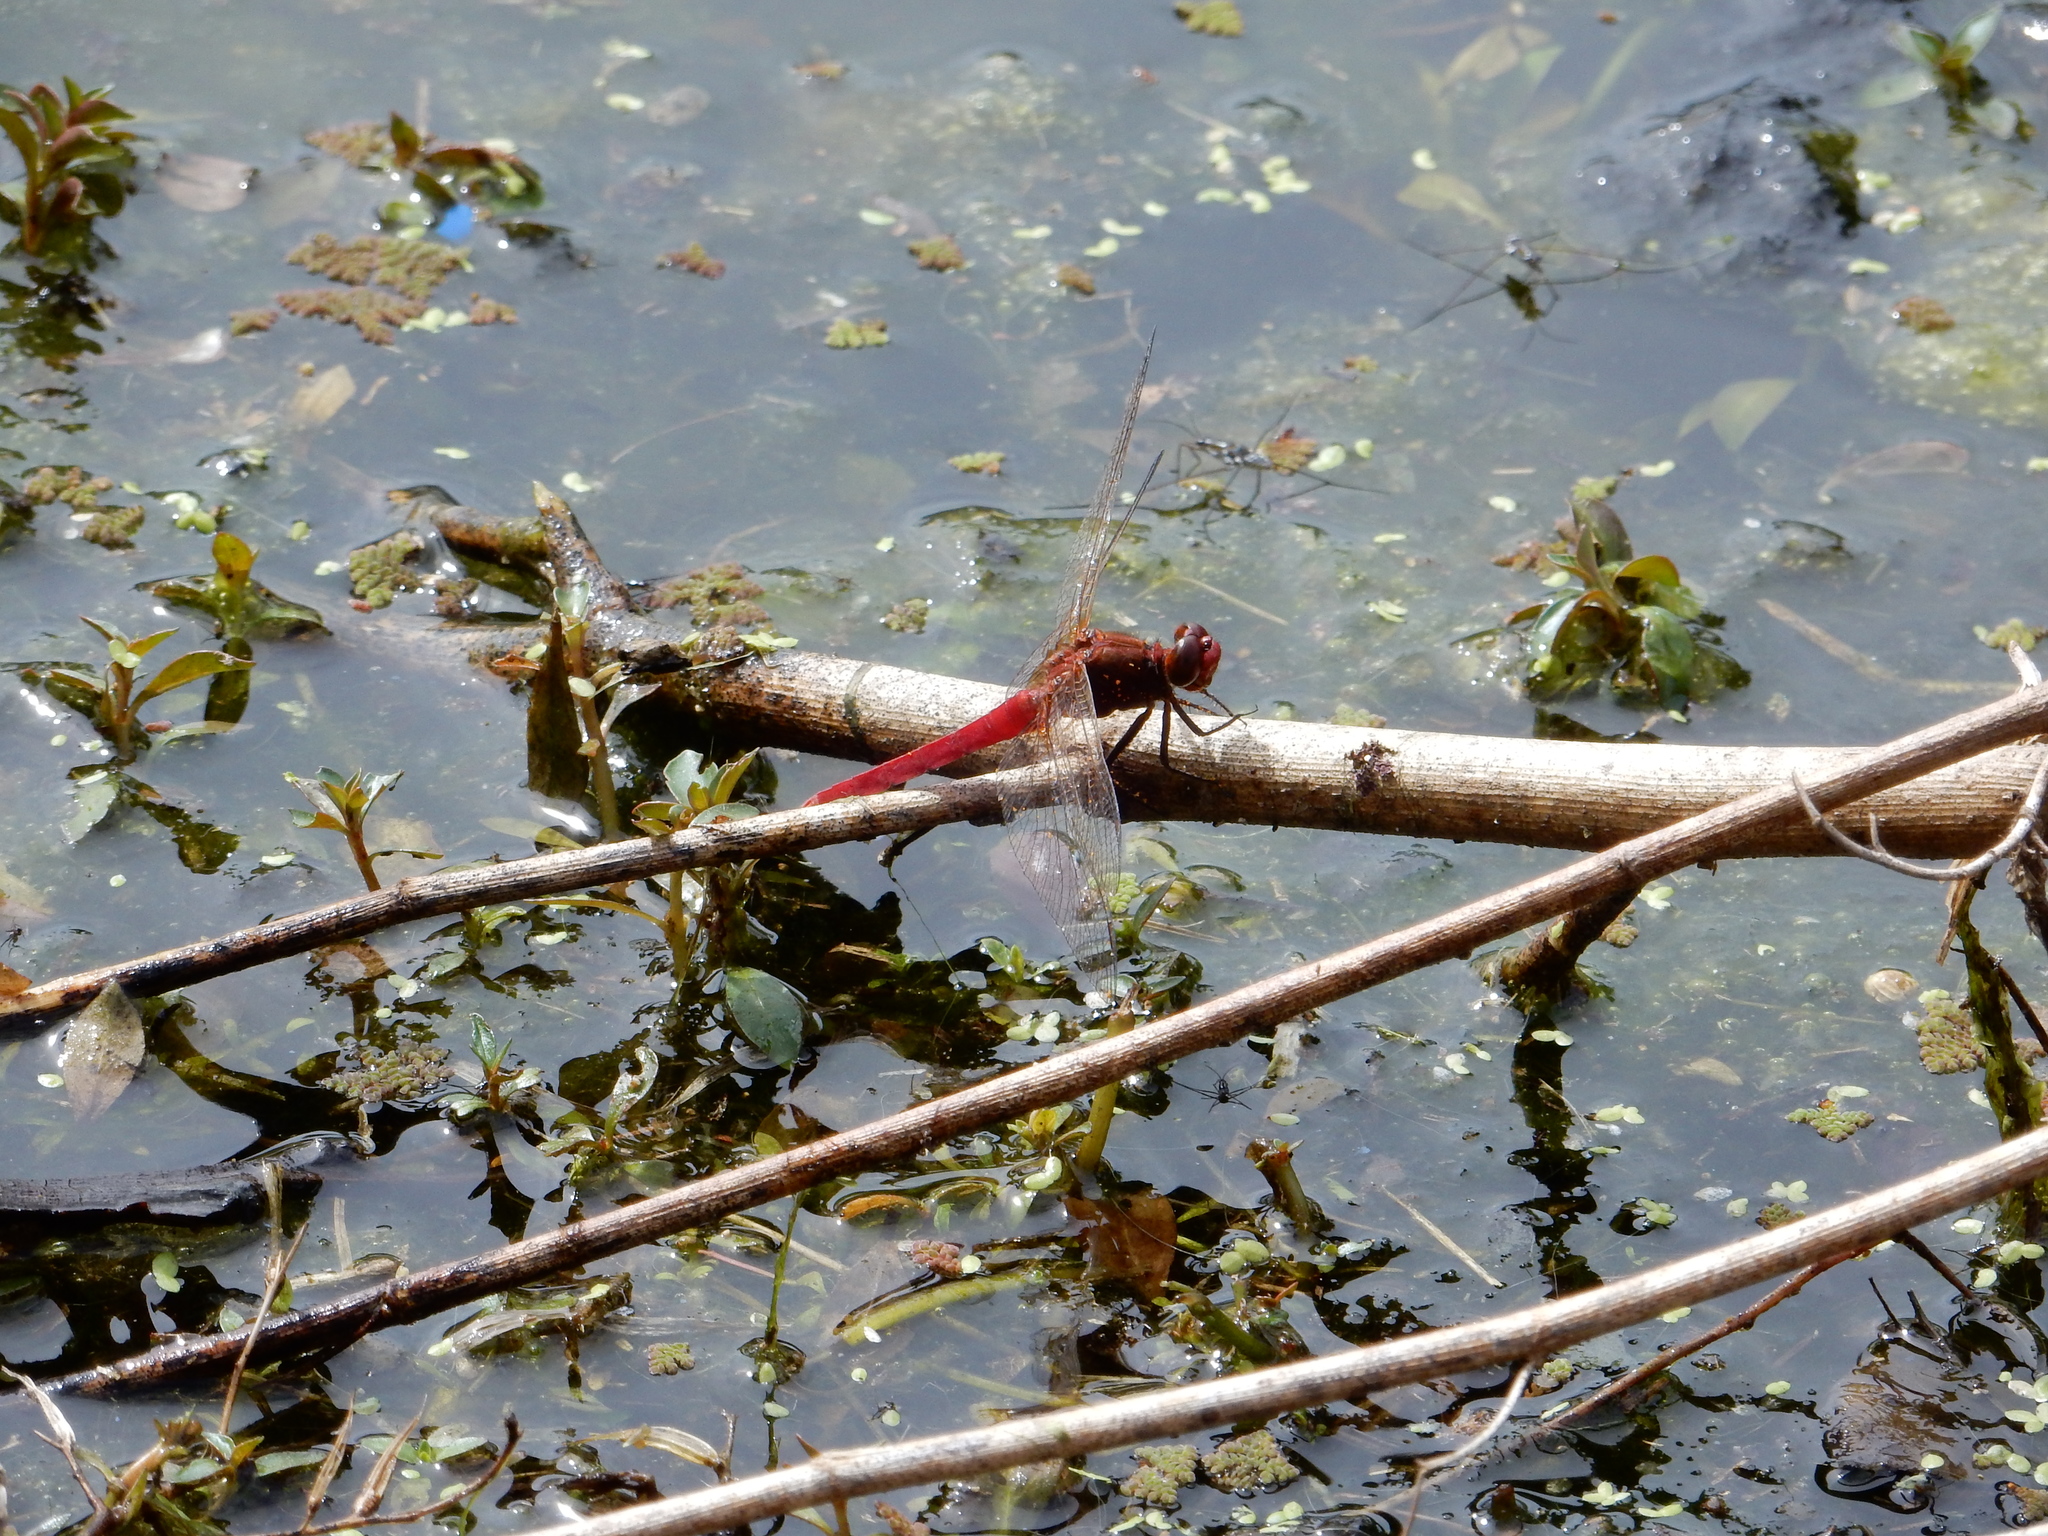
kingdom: Animalia
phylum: Arthropoda
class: Insecta
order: Odonata
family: Libellulidae
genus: Rhodothemis
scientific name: Rhodothemis lieftincki
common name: Red arrow
